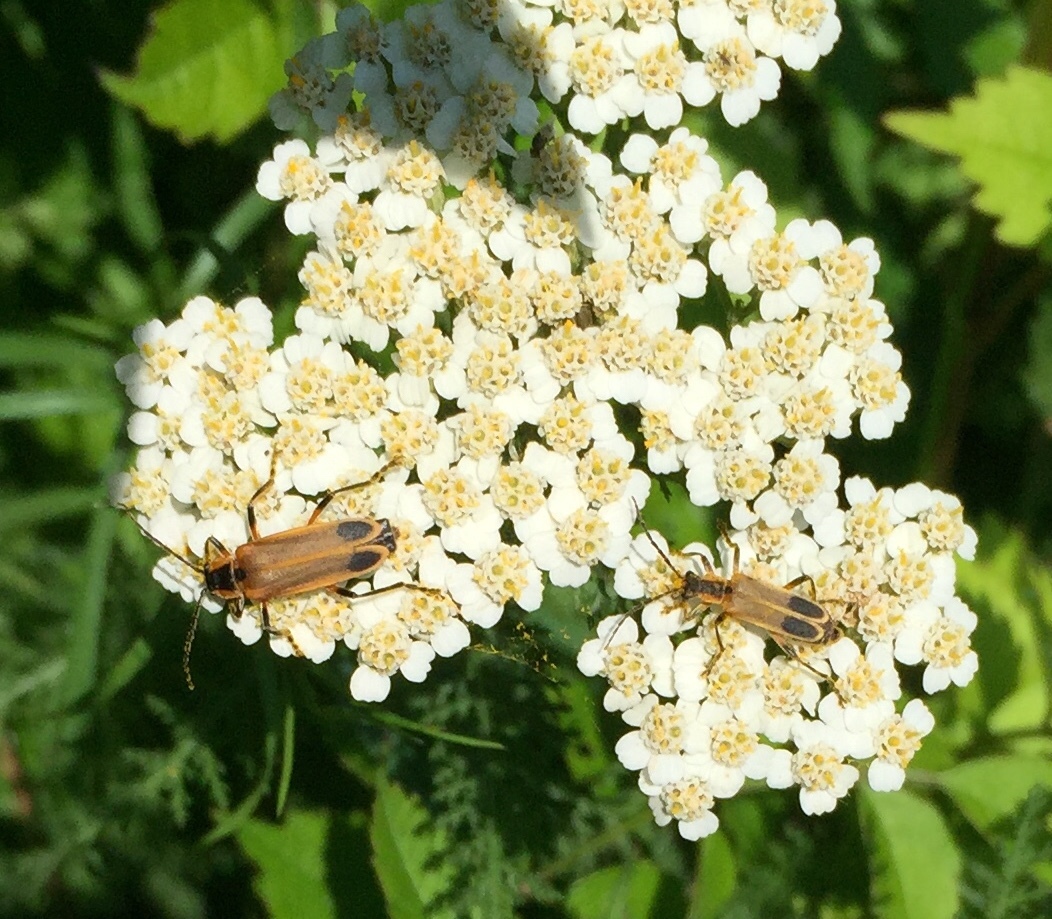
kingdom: Animalia
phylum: Arthropoda
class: Insecta
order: Coleoptera
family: Cantharidae
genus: Chauliognathus
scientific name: Chauliognathus marginatus
